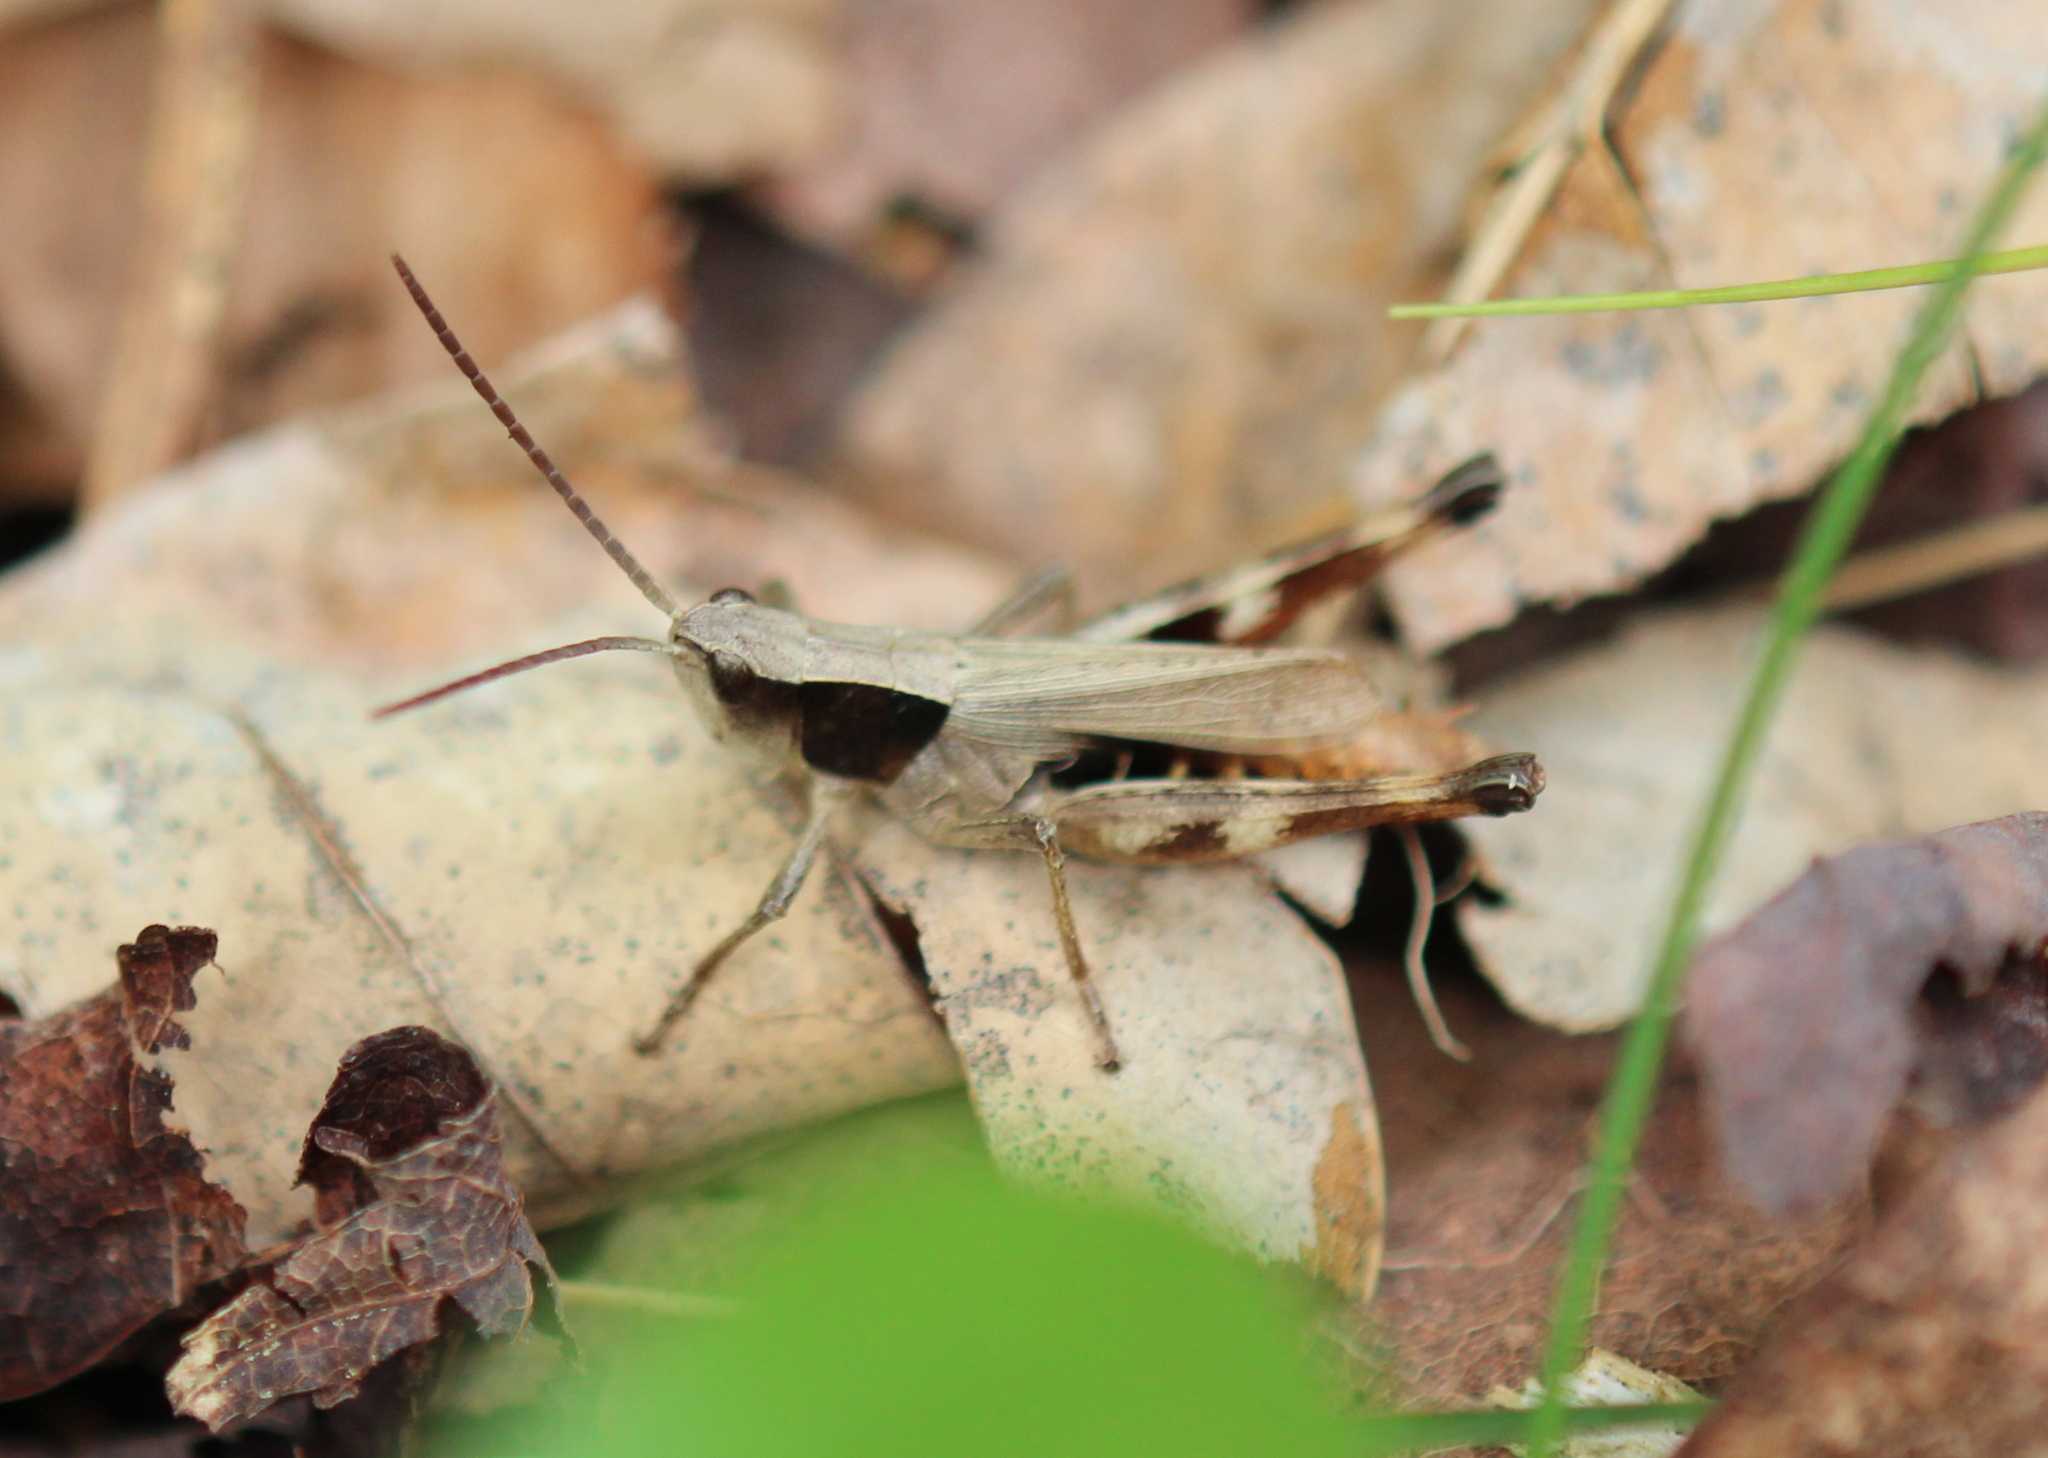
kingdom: Animalia
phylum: Arthropoda
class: Insecta
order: Orthoptera
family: Acrididae
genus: Chloealtis
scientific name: Chloealtis conspersa
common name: Sprinkled broad-winged grasshopper
